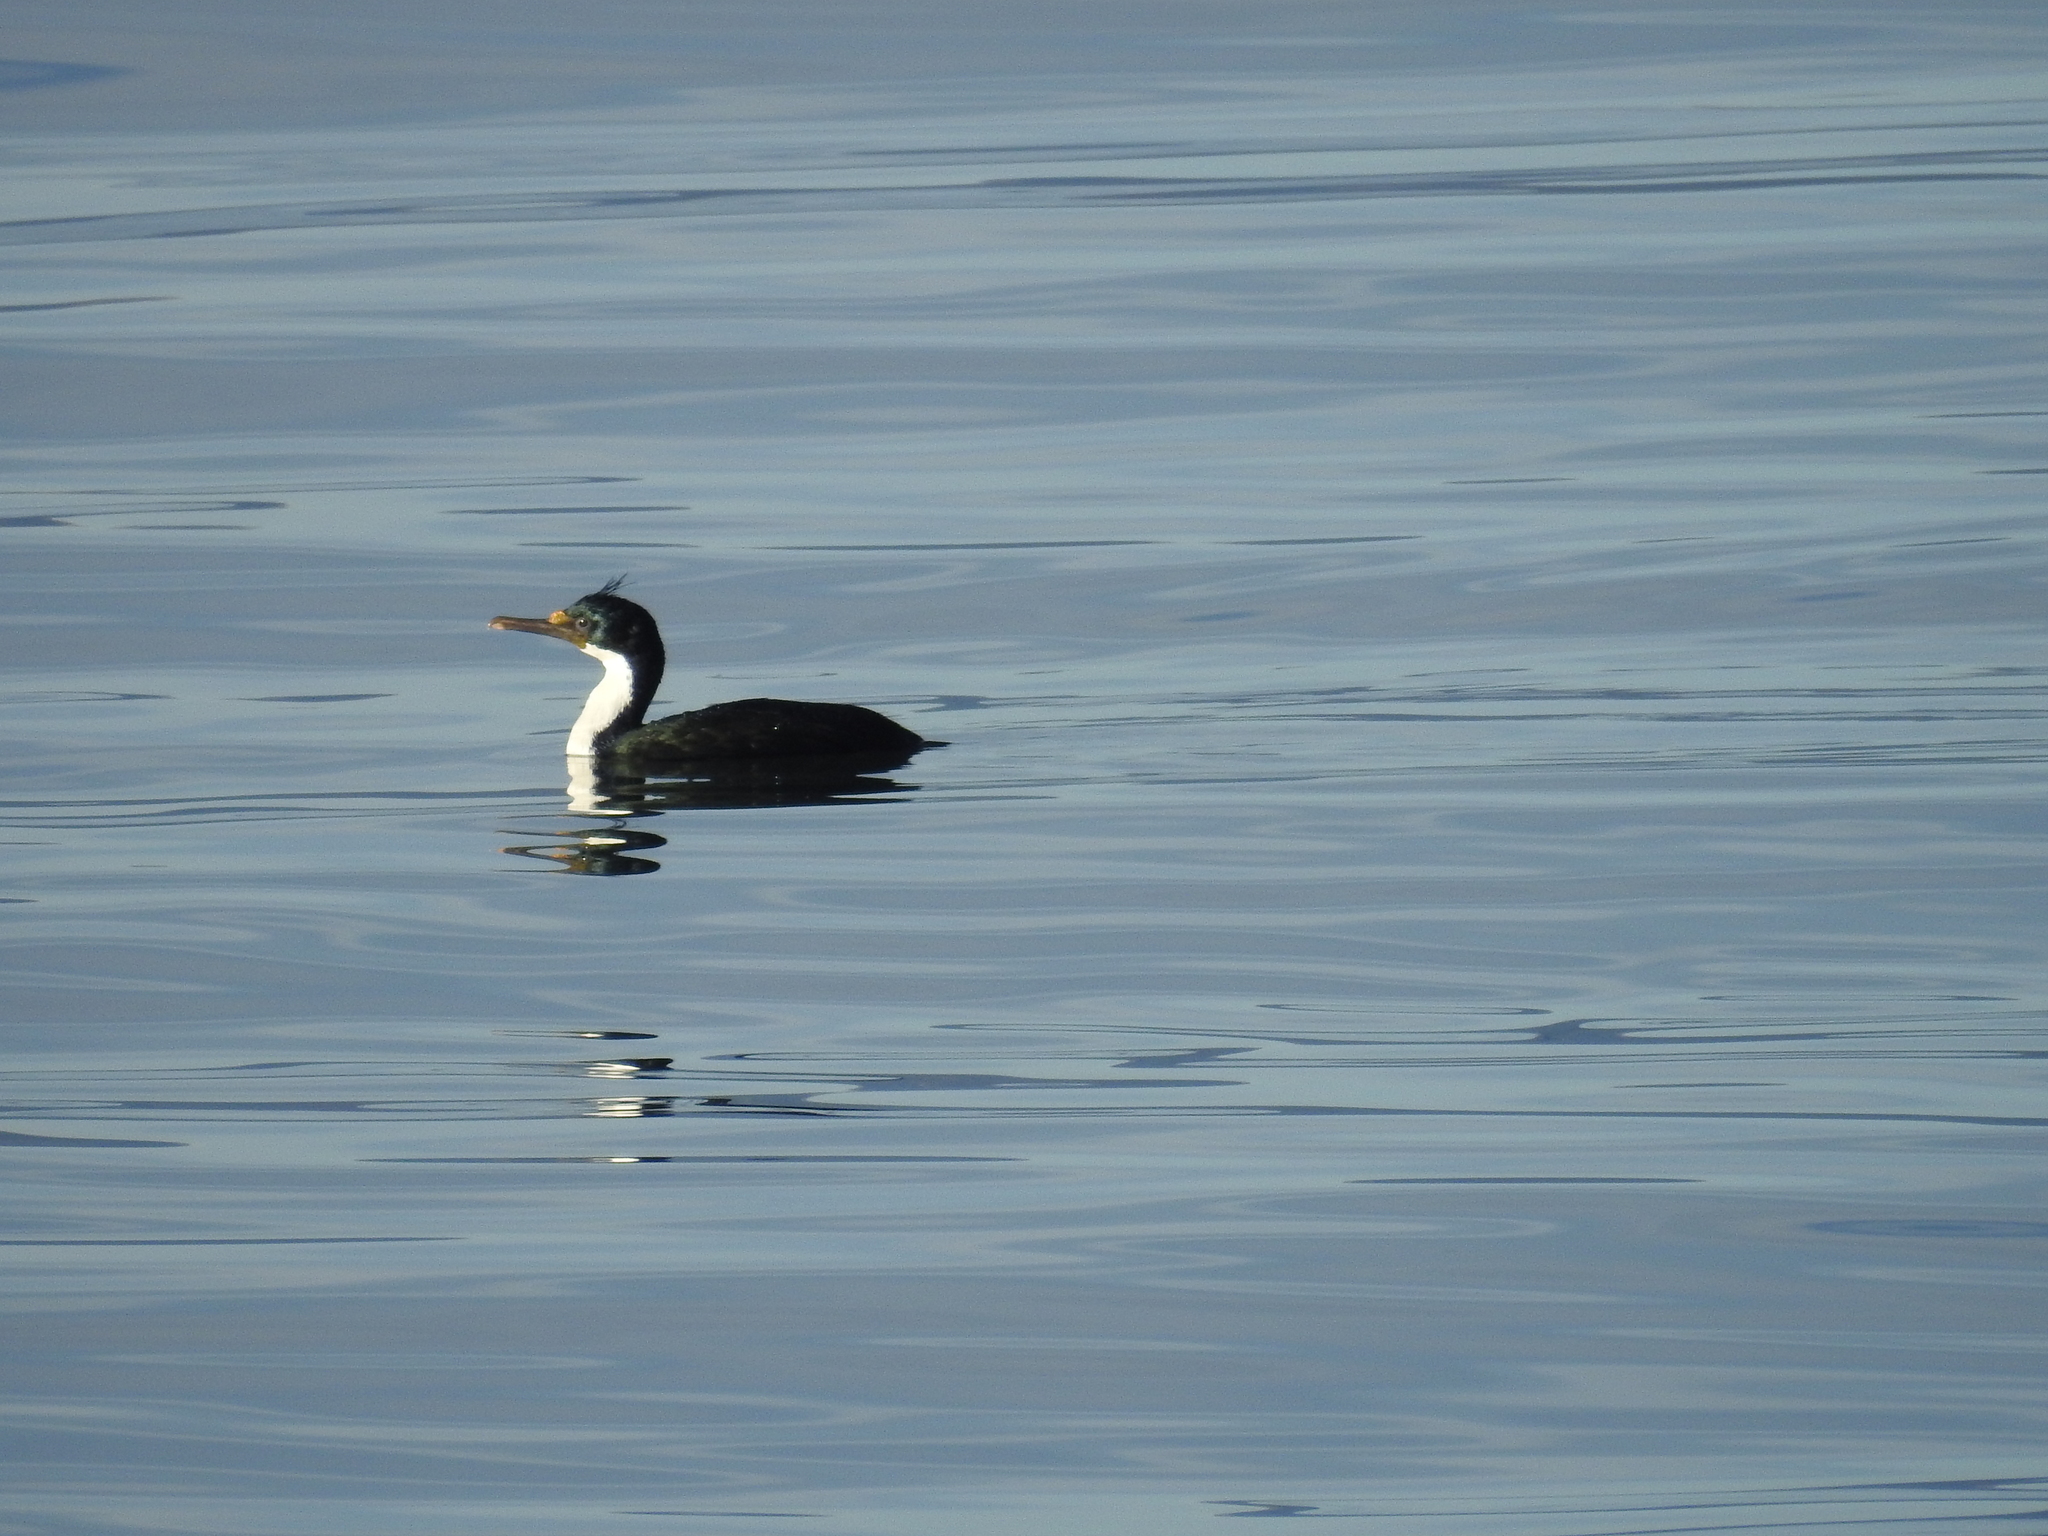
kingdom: Animalia
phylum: Chordata
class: Aves
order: Suliformes
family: Phalacrocoracidae
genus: Leucocarbo
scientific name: Leucocarbo atriceps
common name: Imperial shag
